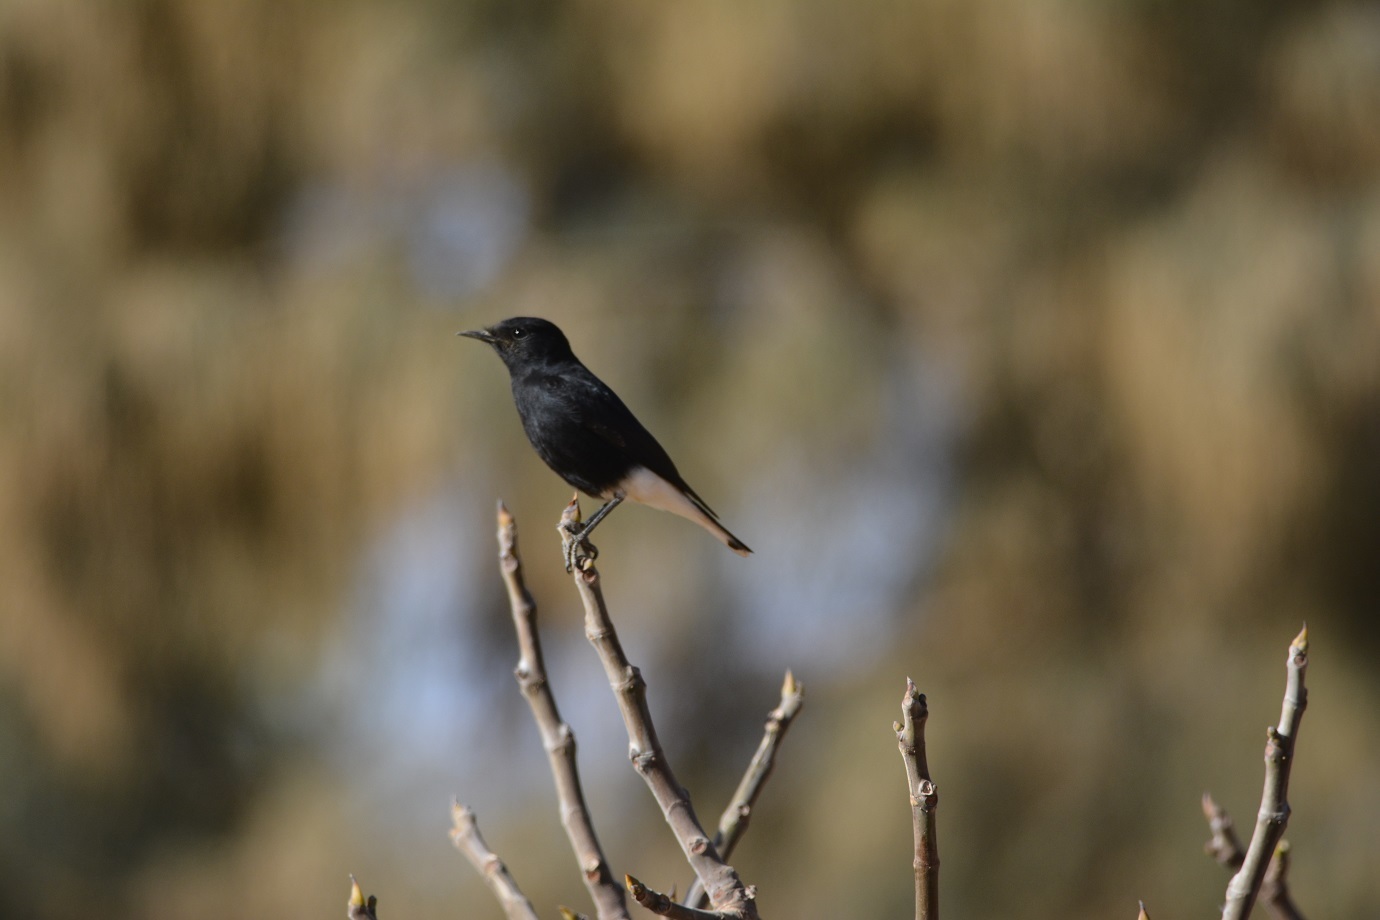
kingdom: Animalia
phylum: Chordata
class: Aves
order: Passeriformes
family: Muscicapidae
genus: Oenanthe
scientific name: Oenanthe leucopyga
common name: White-crowned wheatear
